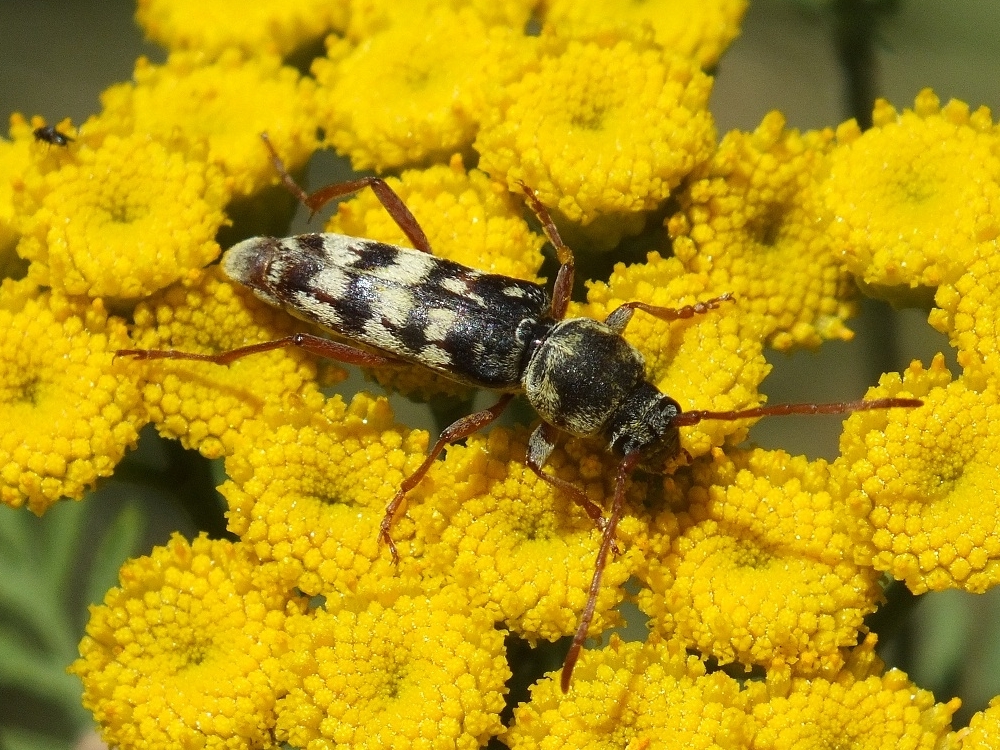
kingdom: Animalia
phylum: Arthropoda
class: Insecta
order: Coleoptera
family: Cerambycidae
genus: Plagionotus
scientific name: Plagionotus floralis
